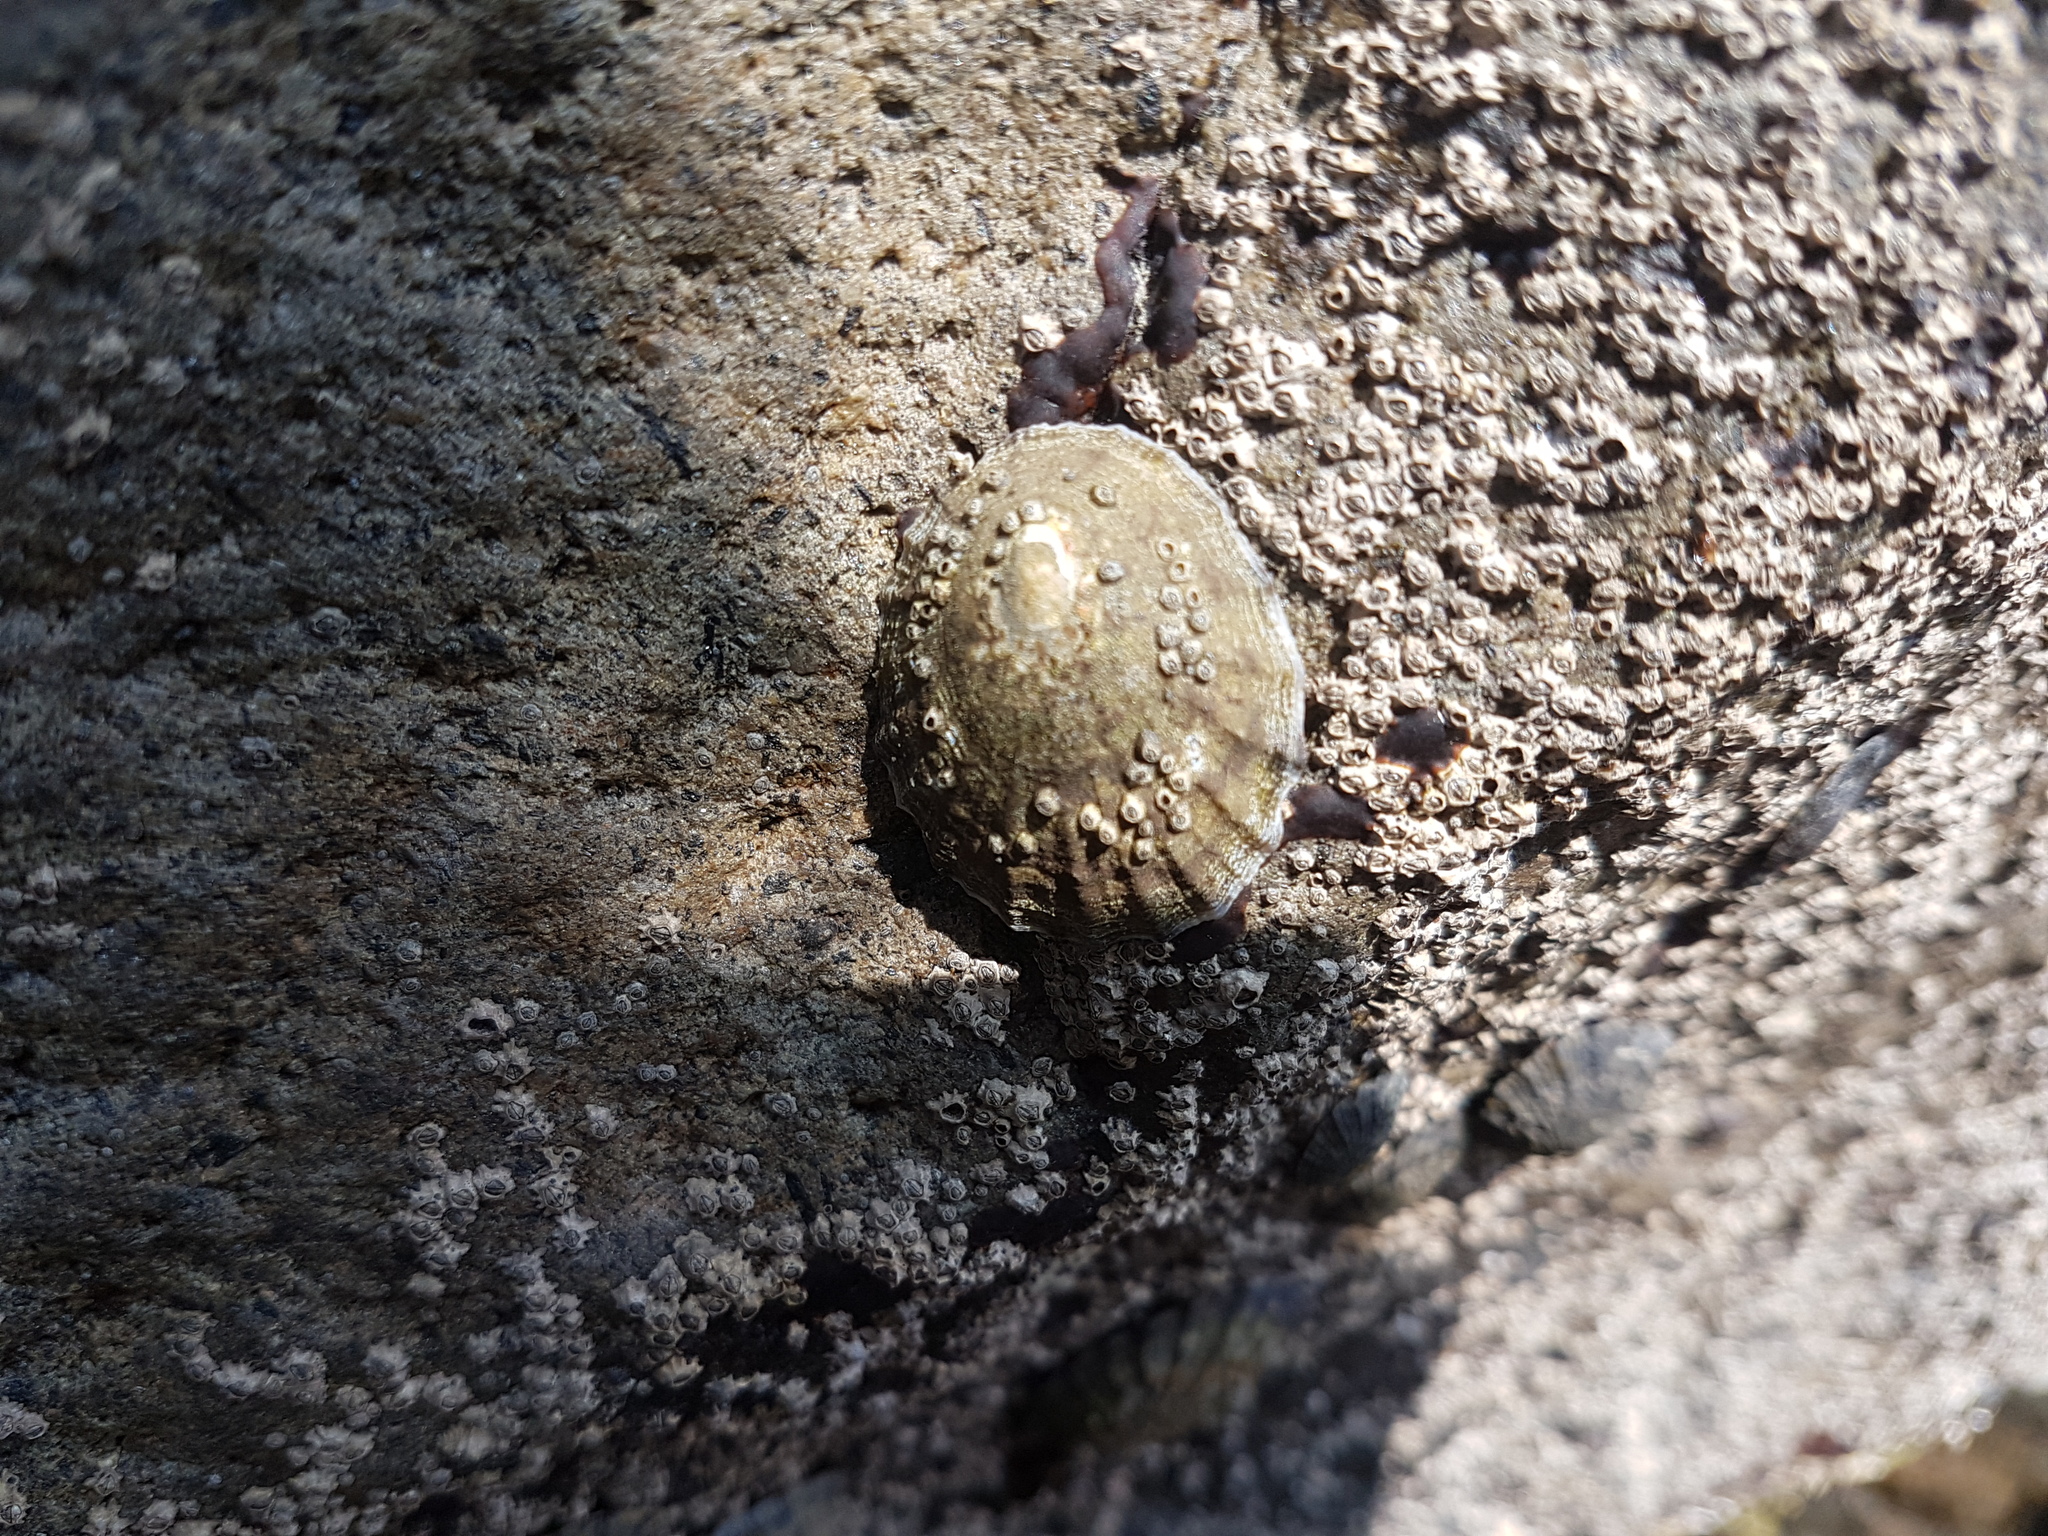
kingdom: Animalia
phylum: Mollusca
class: Gastropoda
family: Nacellidae
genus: Cellana
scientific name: Cellana radians
